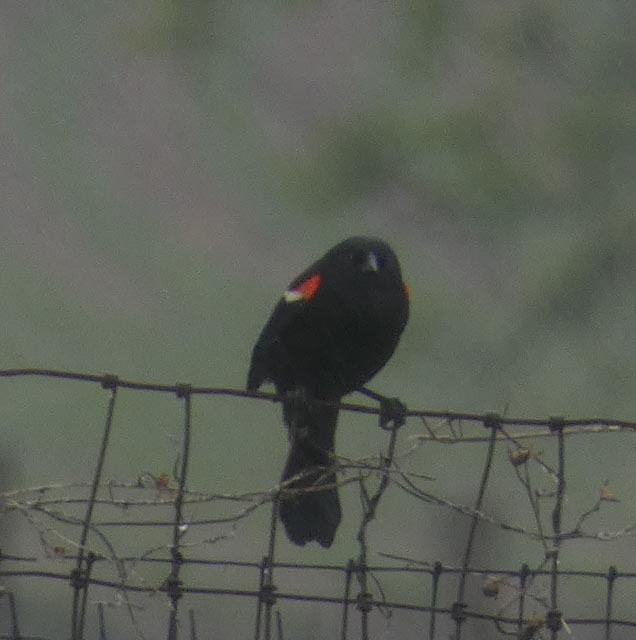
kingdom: Animalia
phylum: Chordata
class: Aves
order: Passeriformes
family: Icteridae
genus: Agelaius
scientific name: Agelaius phoeniceus
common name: Red-winged blackbird
